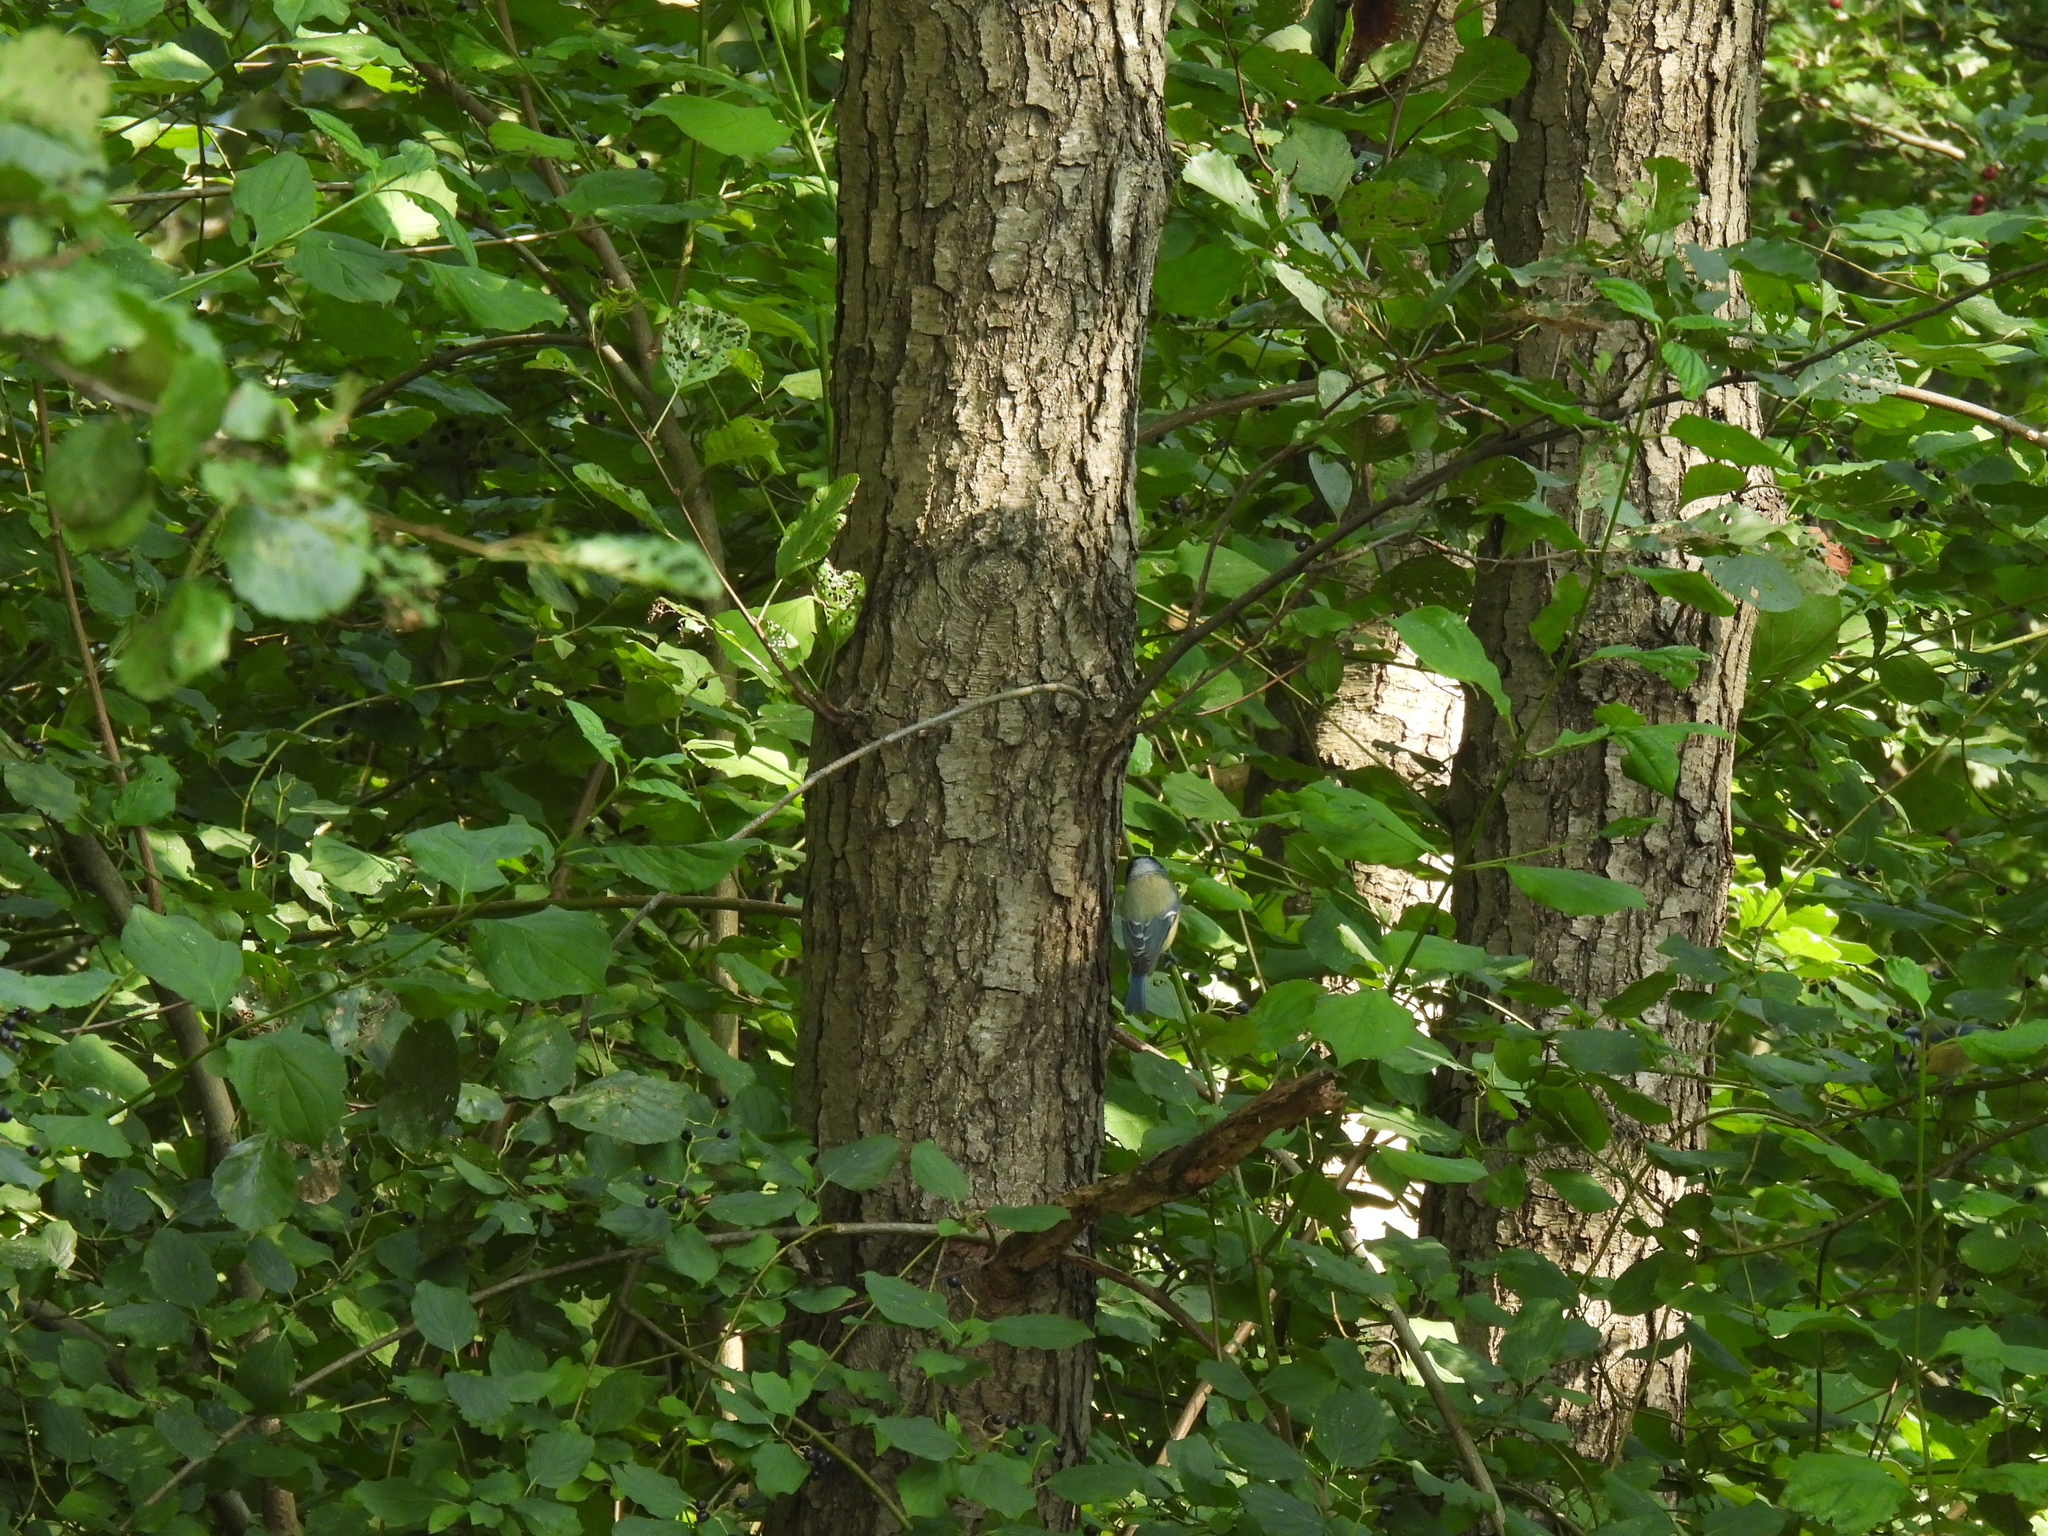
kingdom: Animalia
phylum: Chordata
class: Aves
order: Passeriformes
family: Paridae
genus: Cyanistes
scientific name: Cyanistes caeruleus
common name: Eurasian blue tit
